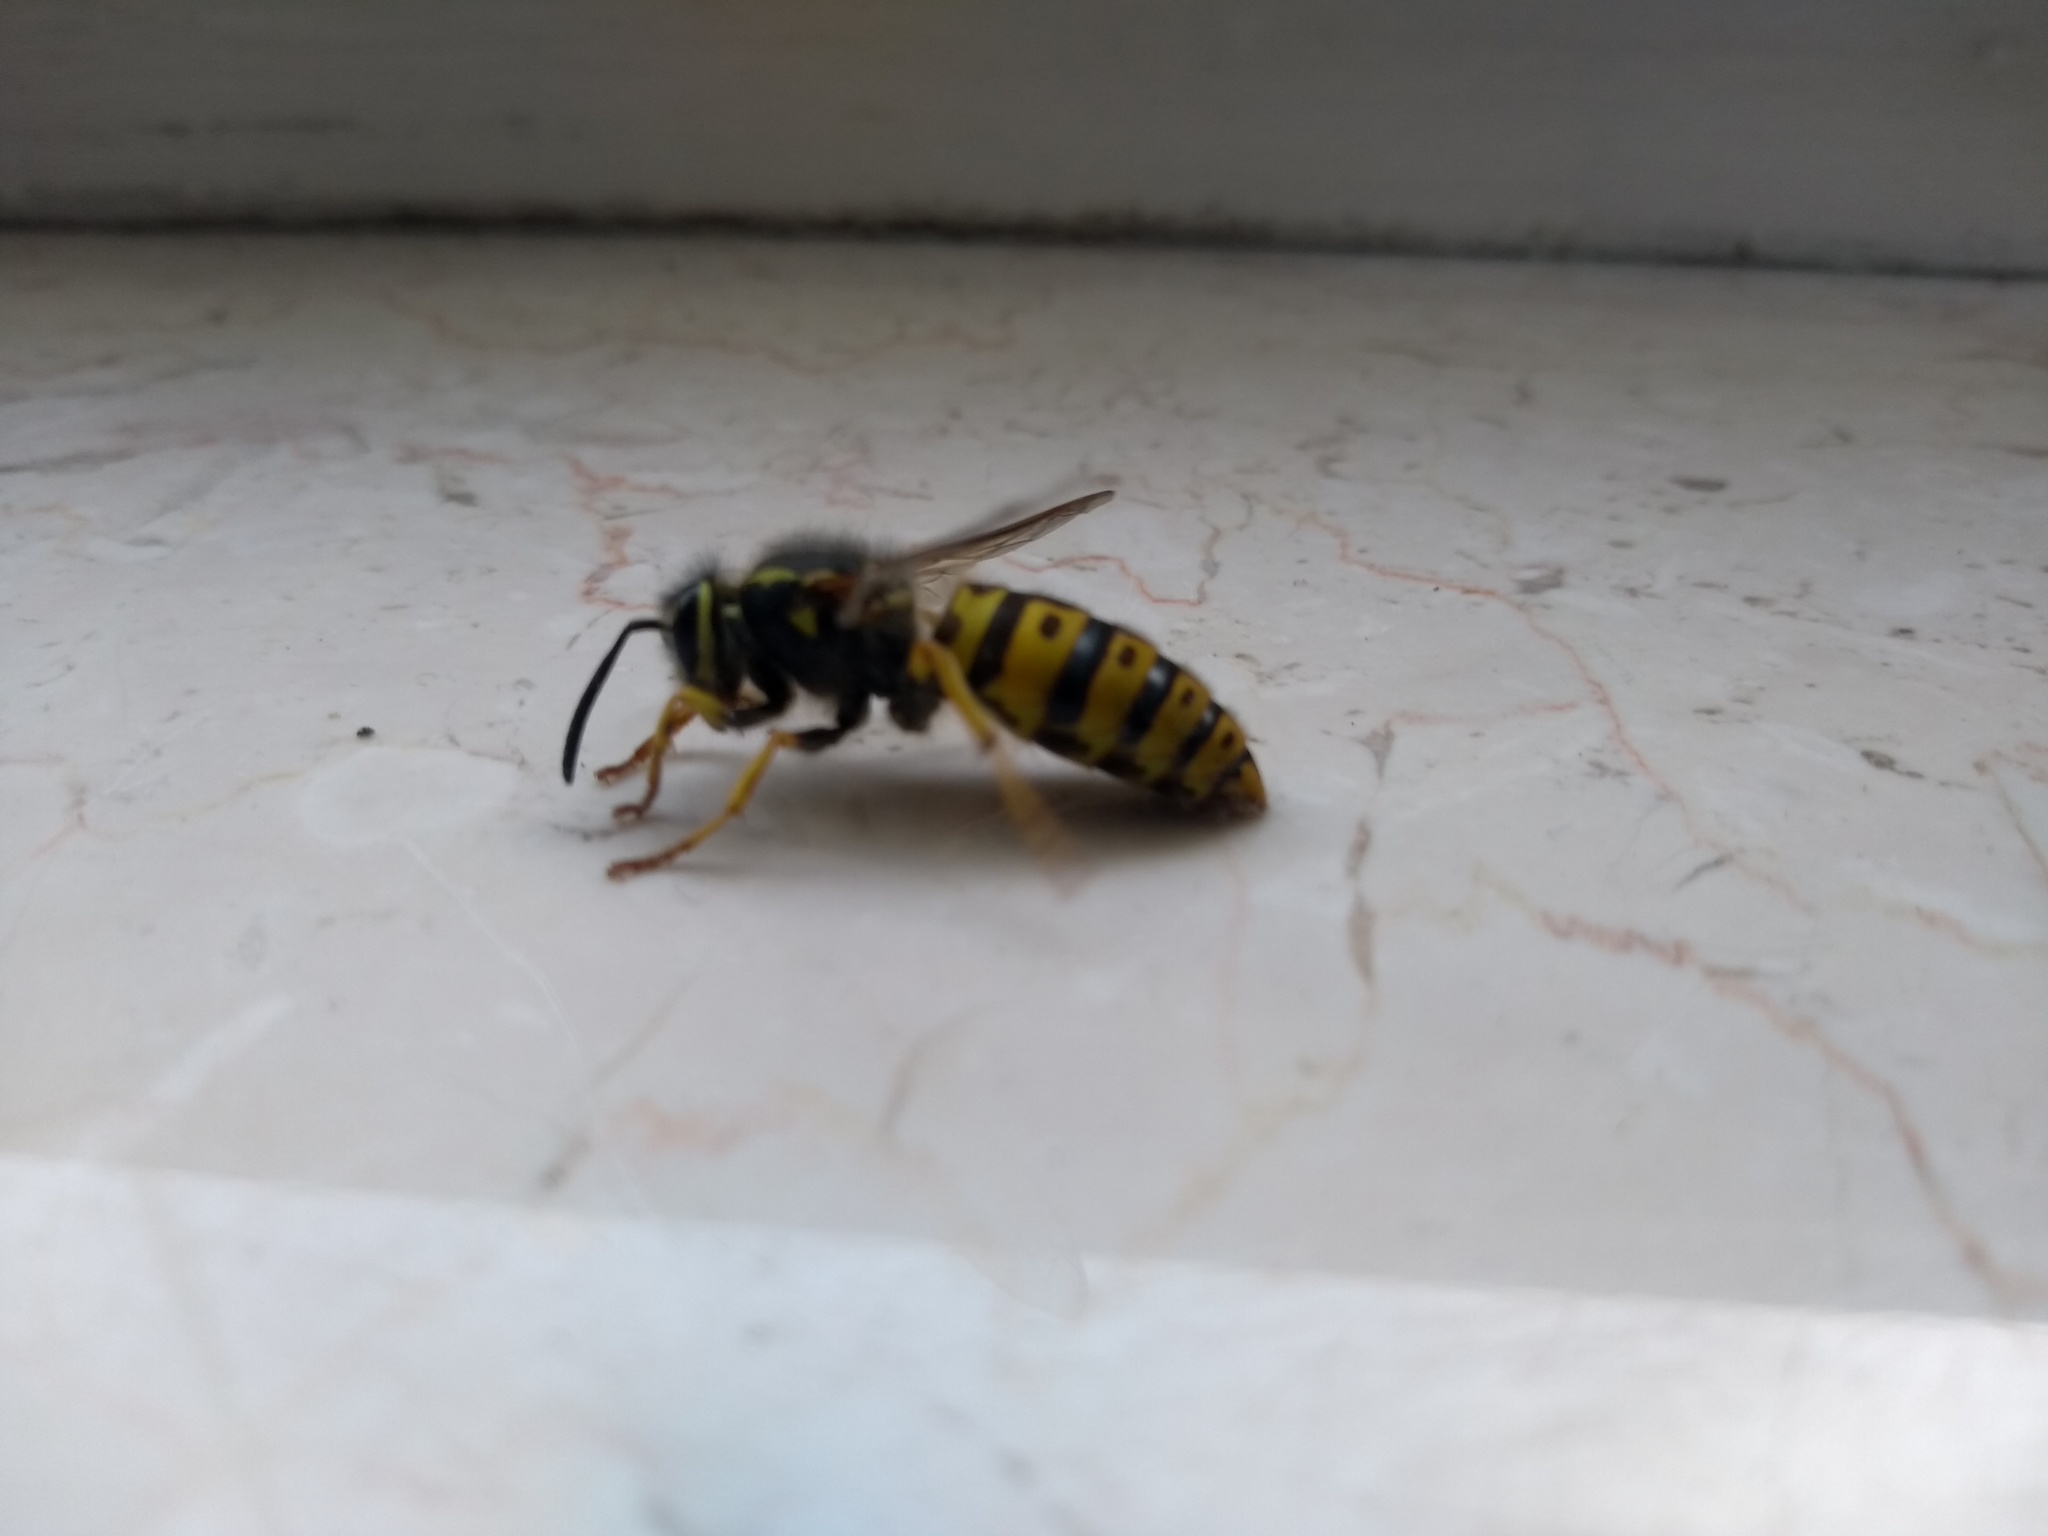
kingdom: Animalia
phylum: Arthropoda
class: Insecta
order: Hymenoptera
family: Vespidae
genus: Vespula
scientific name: Vespula germanica
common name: German wasp
